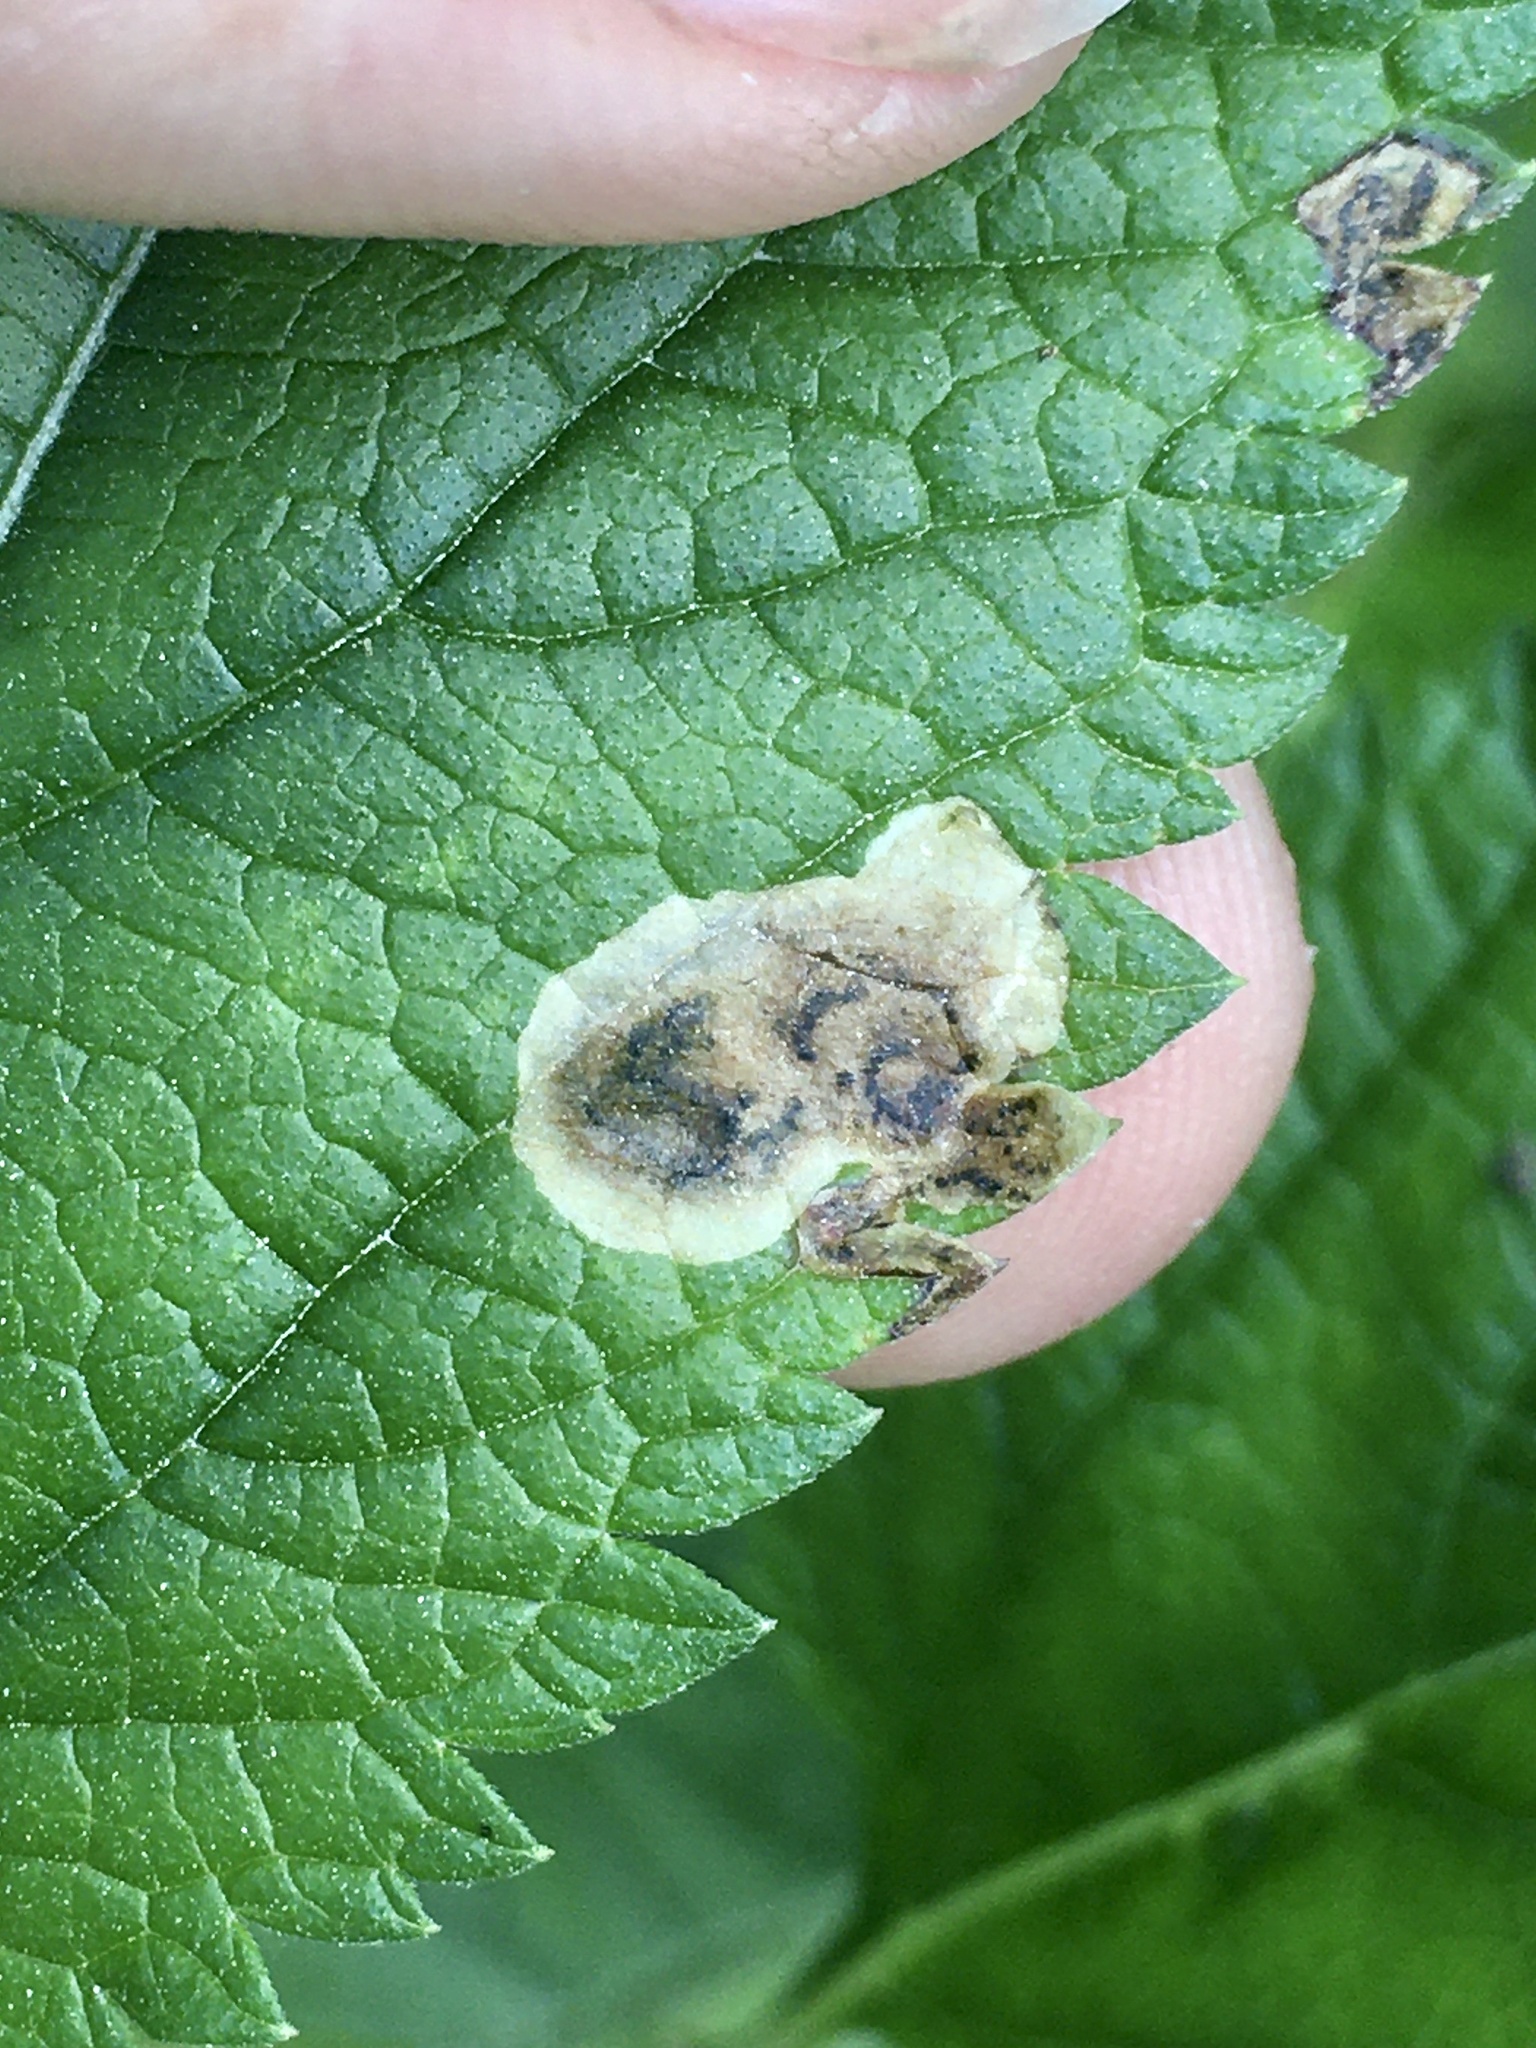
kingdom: Animalia
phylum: Arthropoda
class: Insecta
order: Diptera
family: Agromyzidae
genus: Calycomyza
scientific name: Calycomyza verbenae
